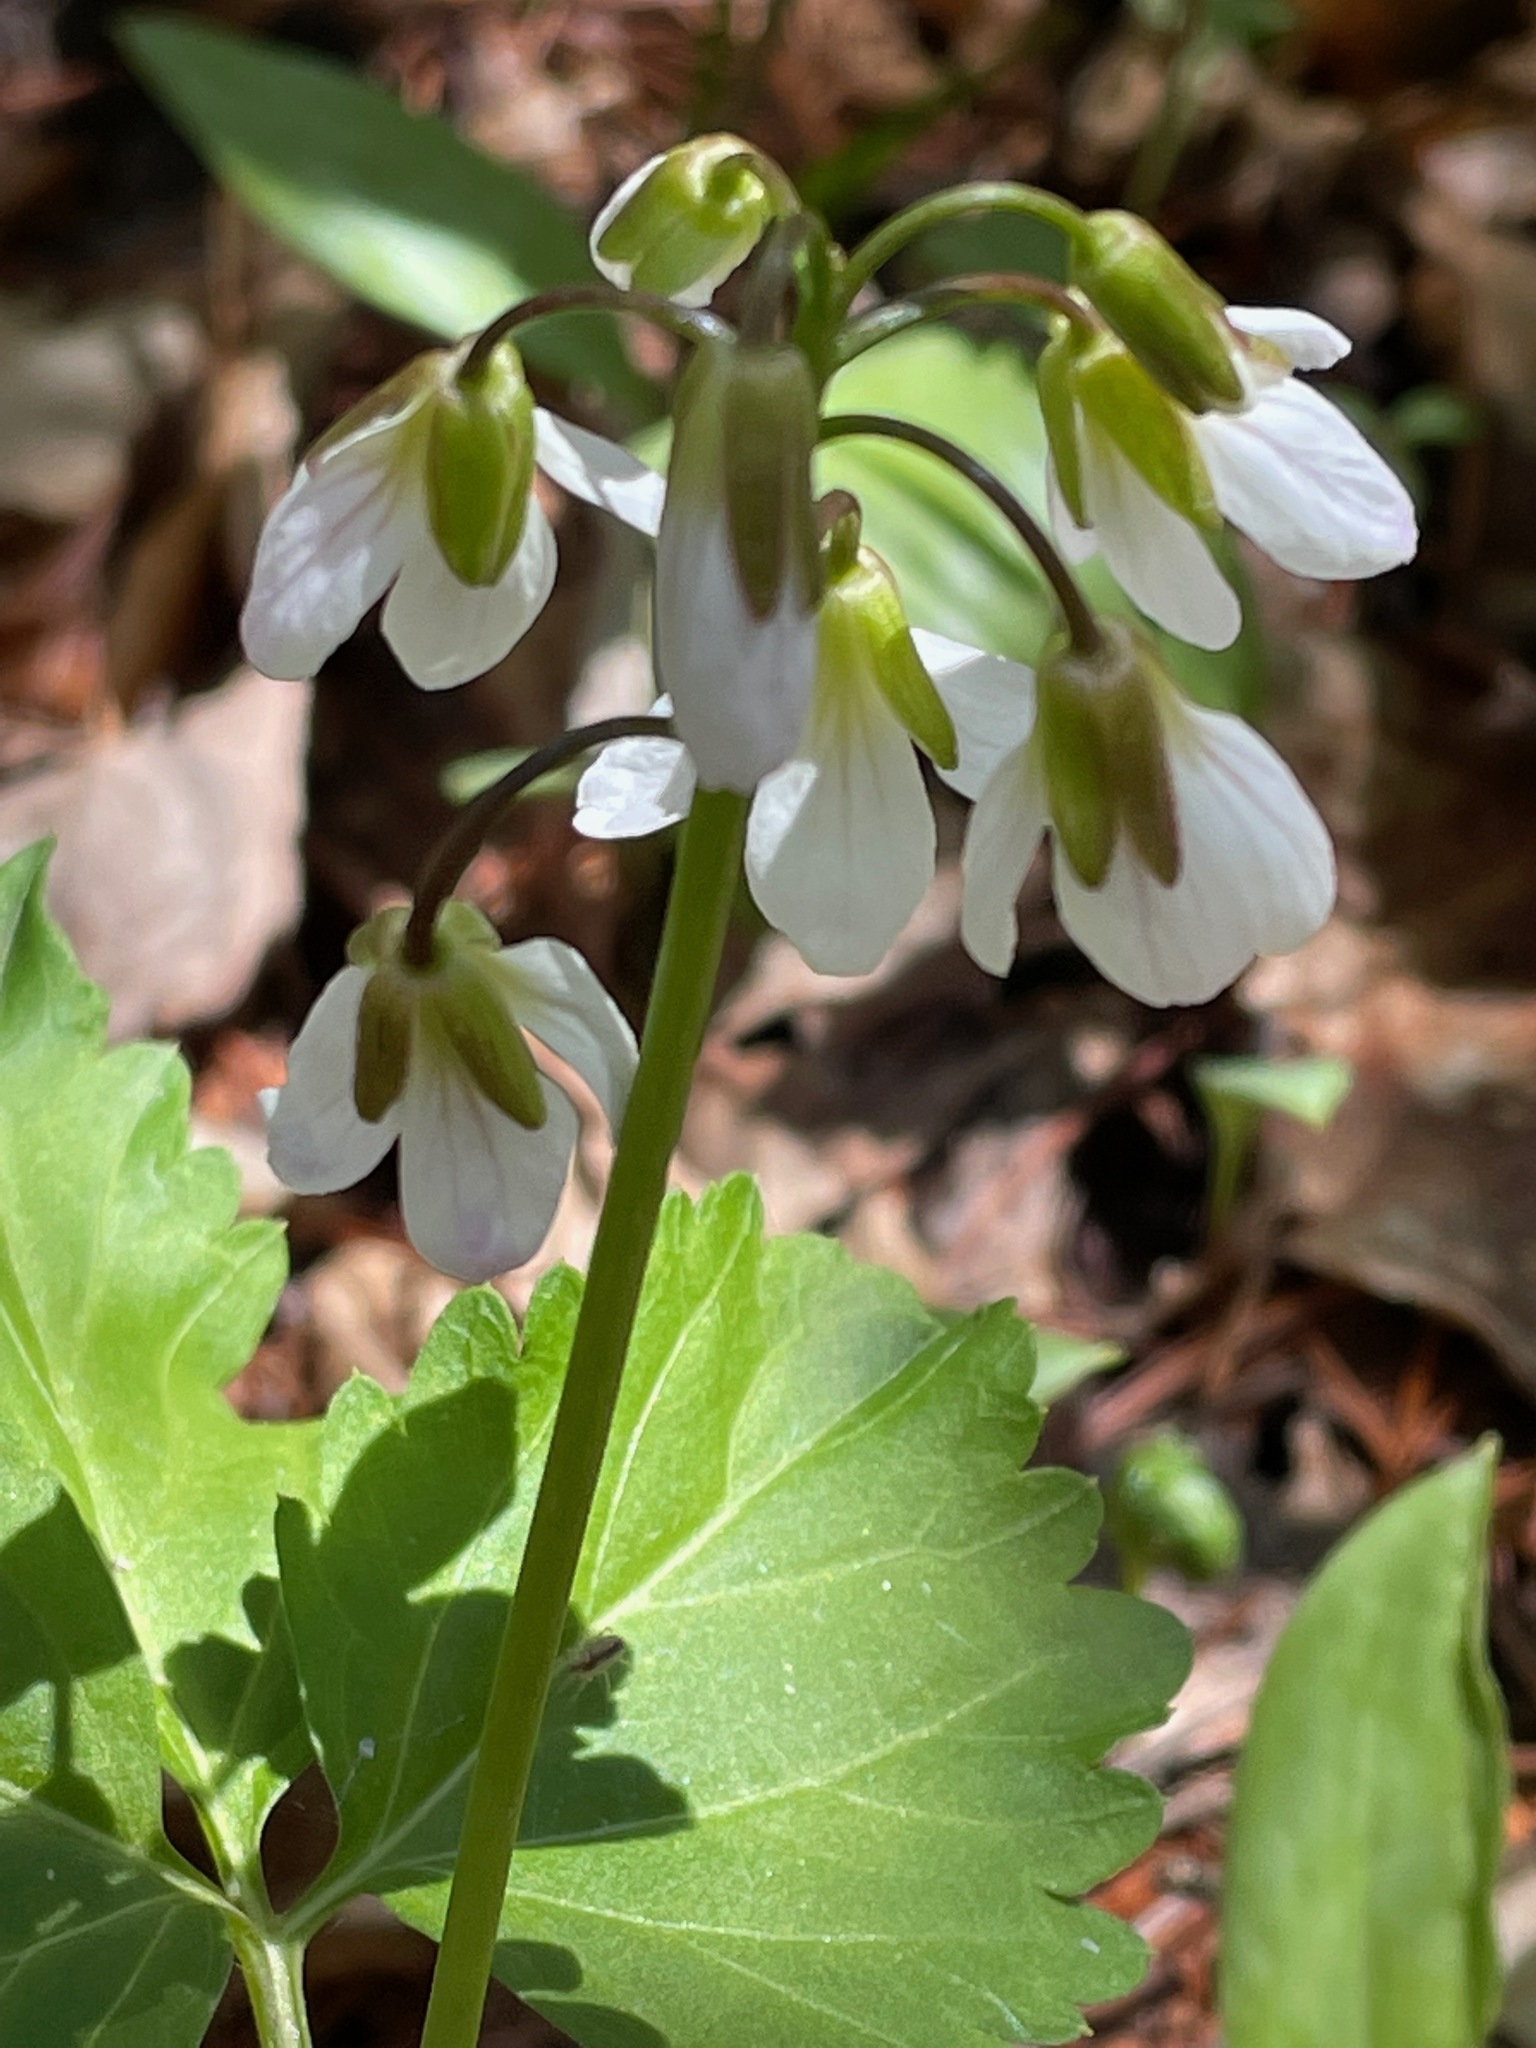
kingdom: Plantae
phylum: Tracheophyta
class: Magnoliopsida
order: Brassicales
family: Brassicaceae
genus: Cardamine
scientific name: Cardamine diphylla
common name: Broad-leaved toothwort
